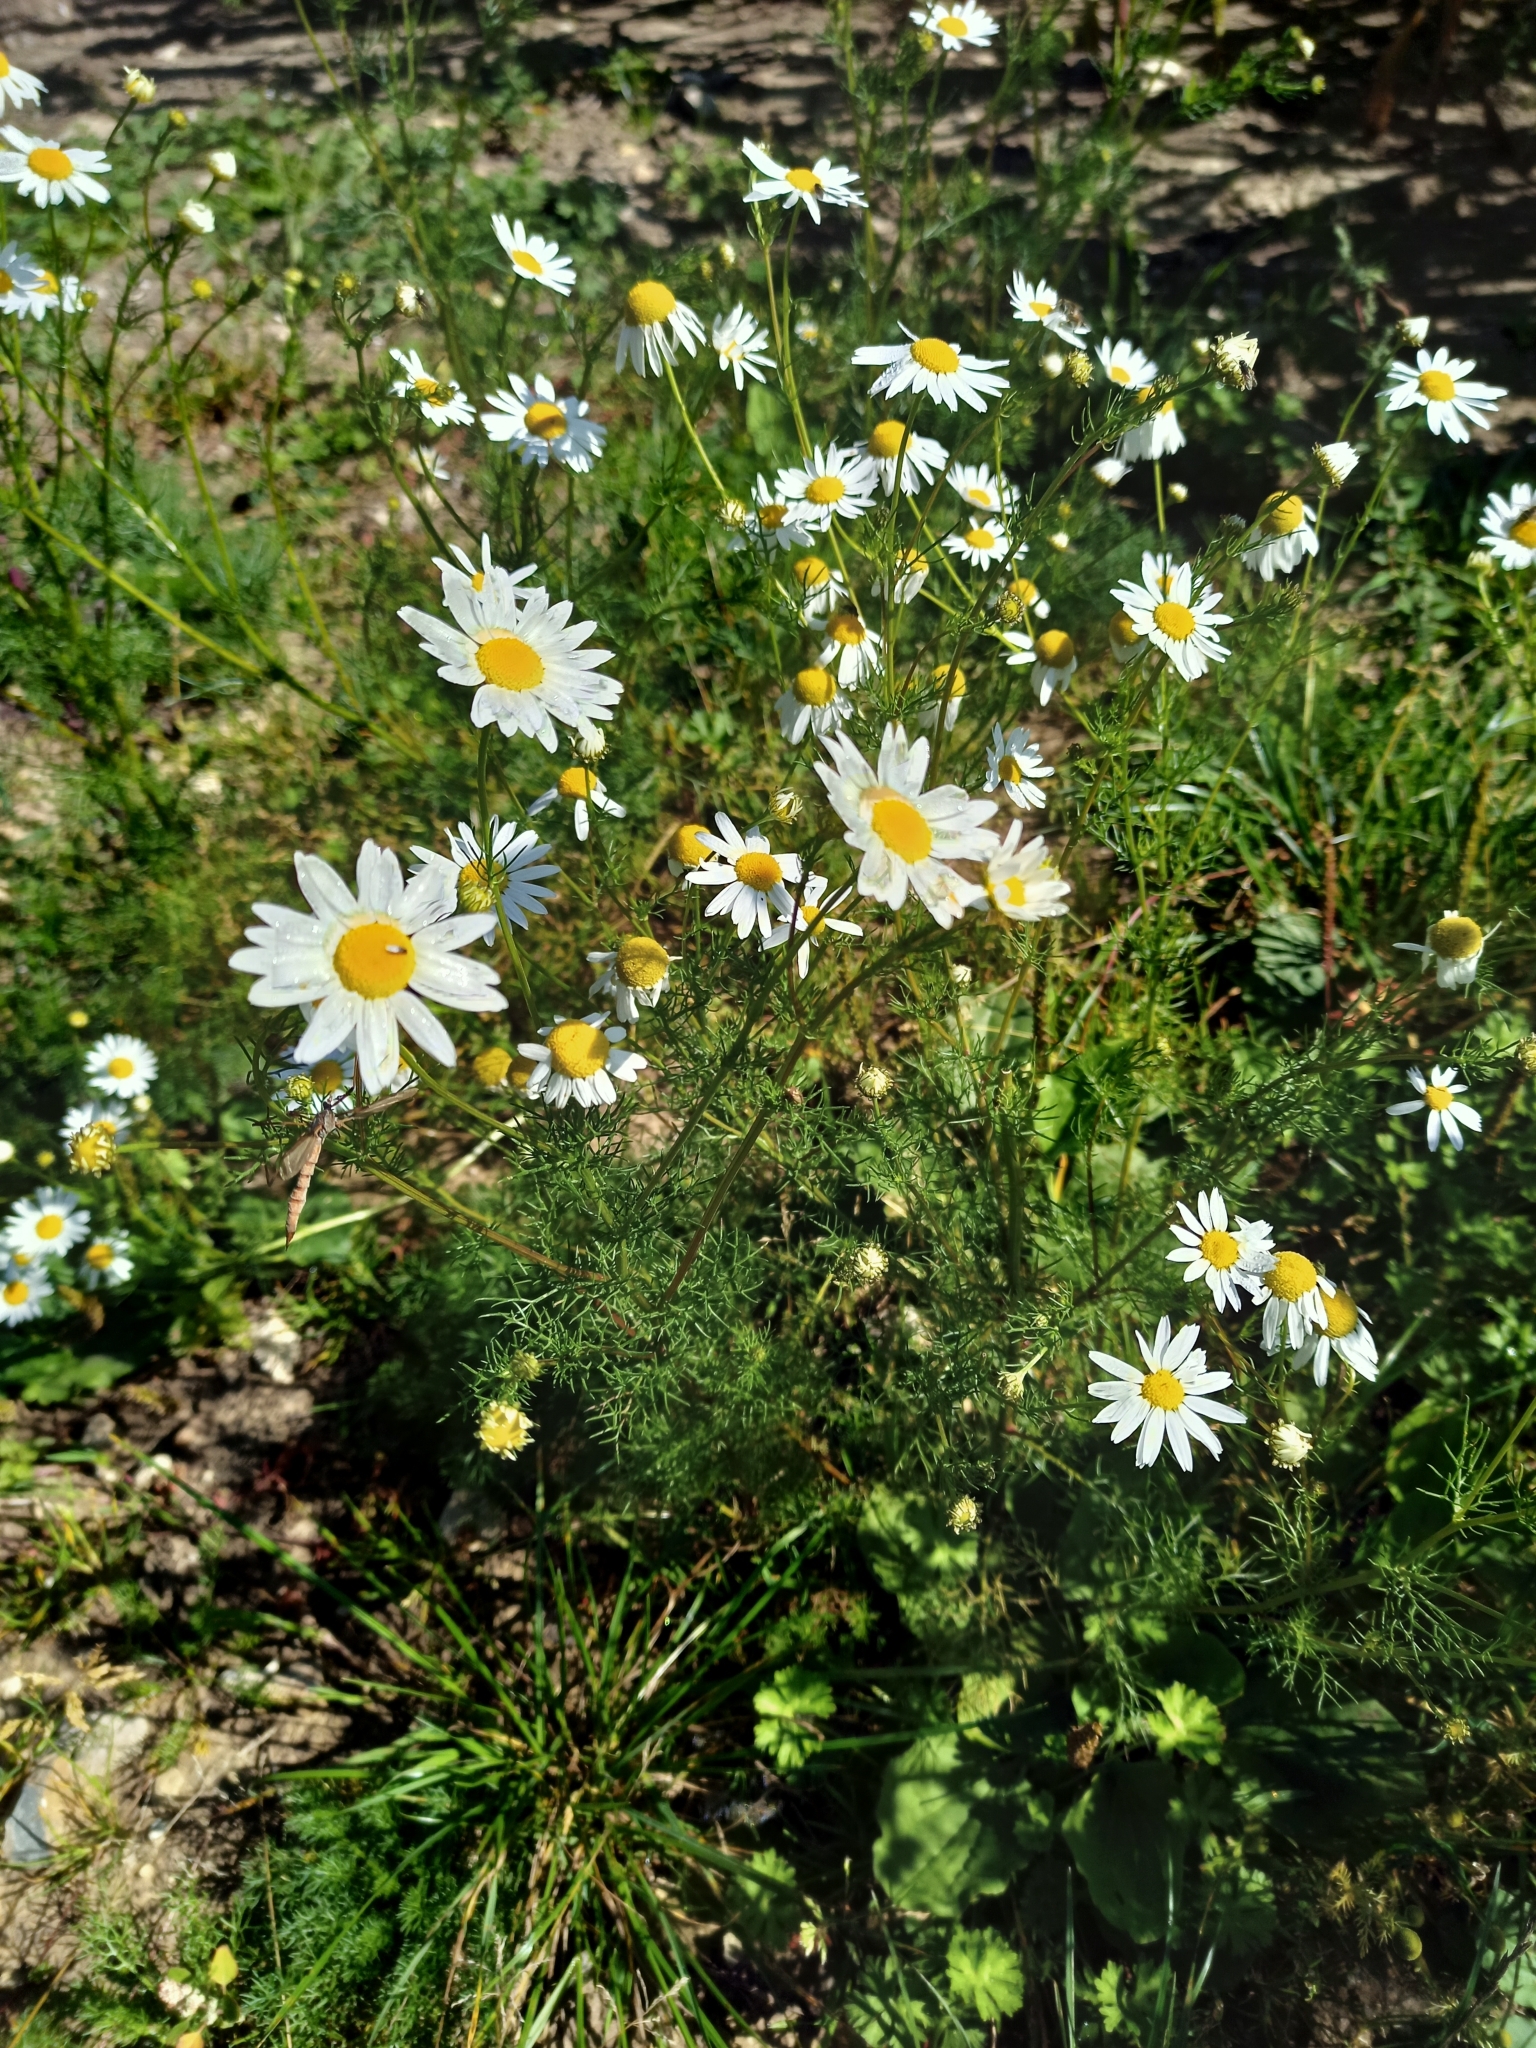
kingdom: Plantae
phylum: Tracheophyta
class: Magnoliopsida
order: Asterales
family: Asteraceae
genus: Tripleurospermum
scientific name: Tripleurospermum inodorum
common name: Scentless mayweed
